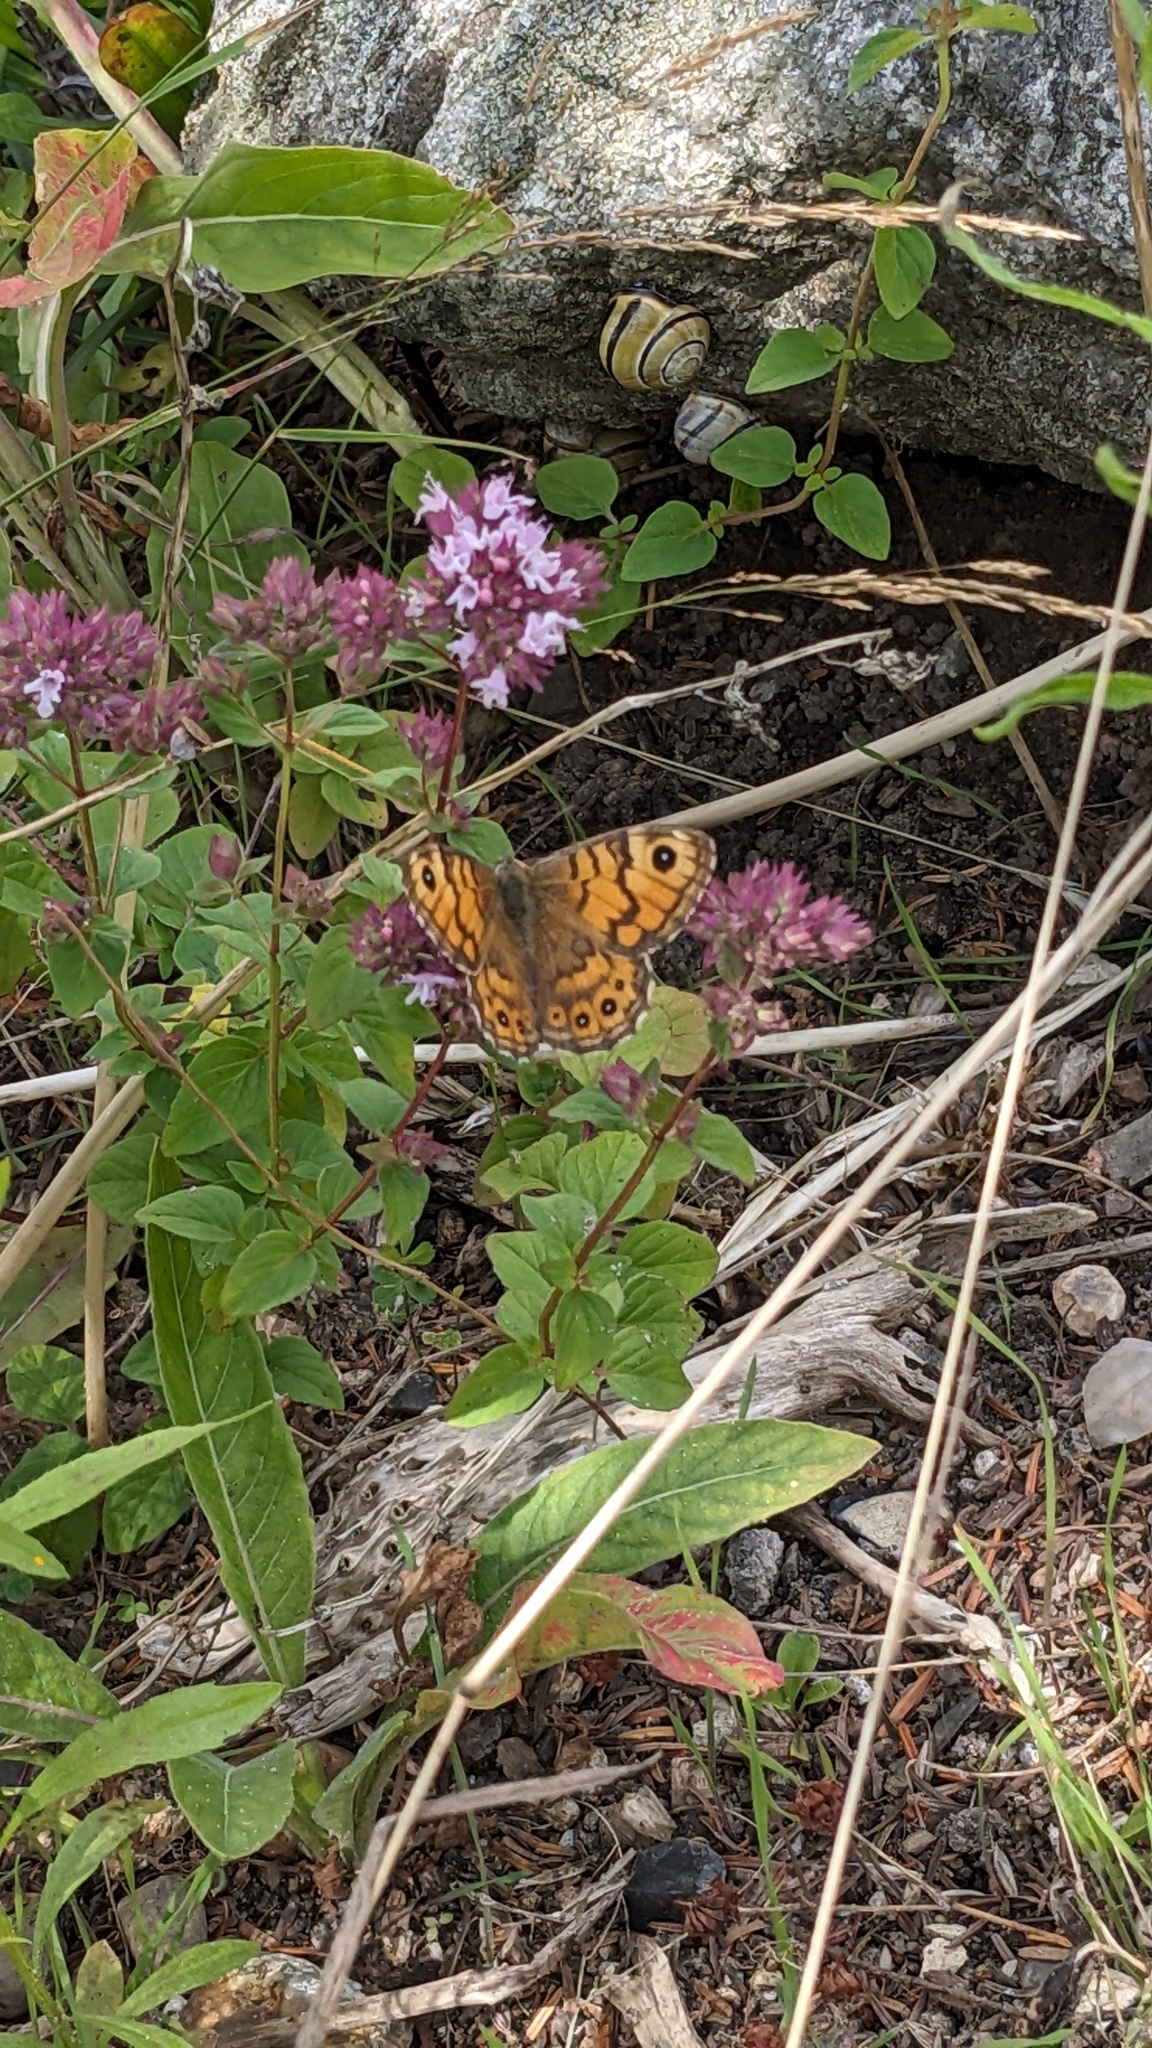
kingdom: Animalia
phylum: Arthropoda
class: Insecta
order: Lepidoptera
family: Nymphalidae
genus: Pararge
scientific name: Pararge Lasiommata megera
